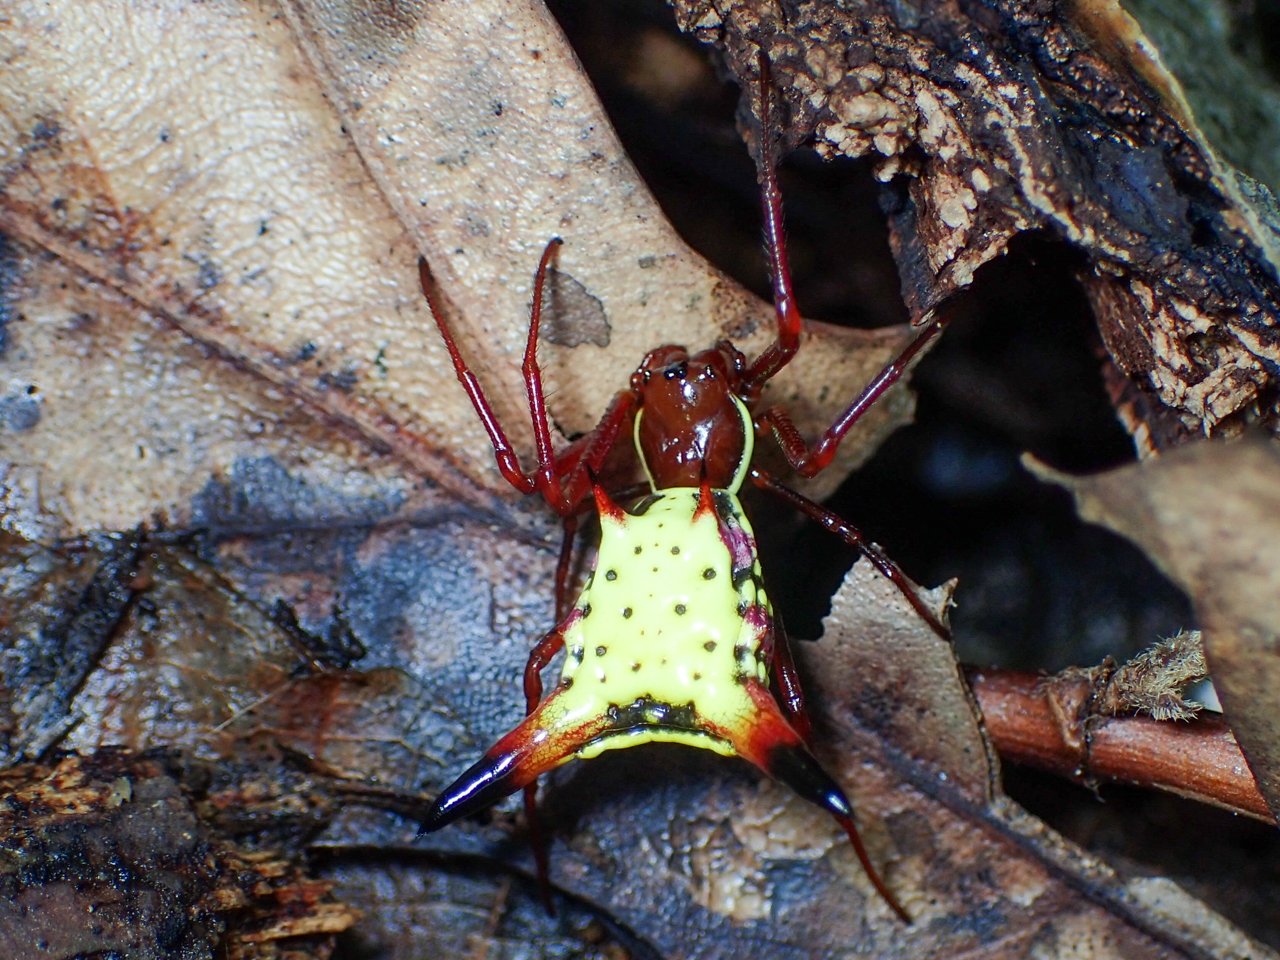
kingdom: Animalia
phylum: Arthropoda
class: Arachnida
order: Araneae
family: Araneidae
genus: Micrathena
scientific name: Micrathena sagittata
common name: Orb weavers
